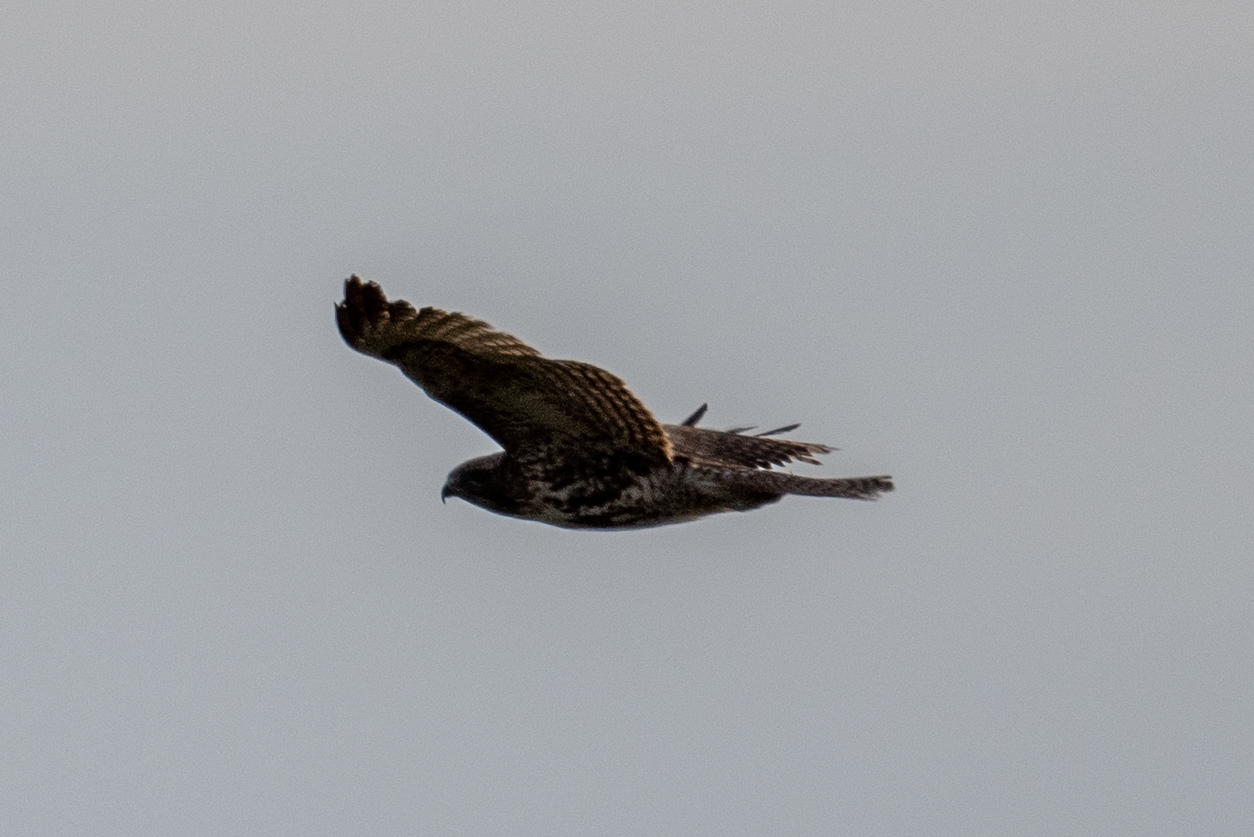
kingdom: Animalia
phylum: Chordata
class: Aves
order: Accipitriformes
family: Accipitridae
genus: Buteo
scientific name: Buteo jamaicensis
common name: Red-tailed hawk
